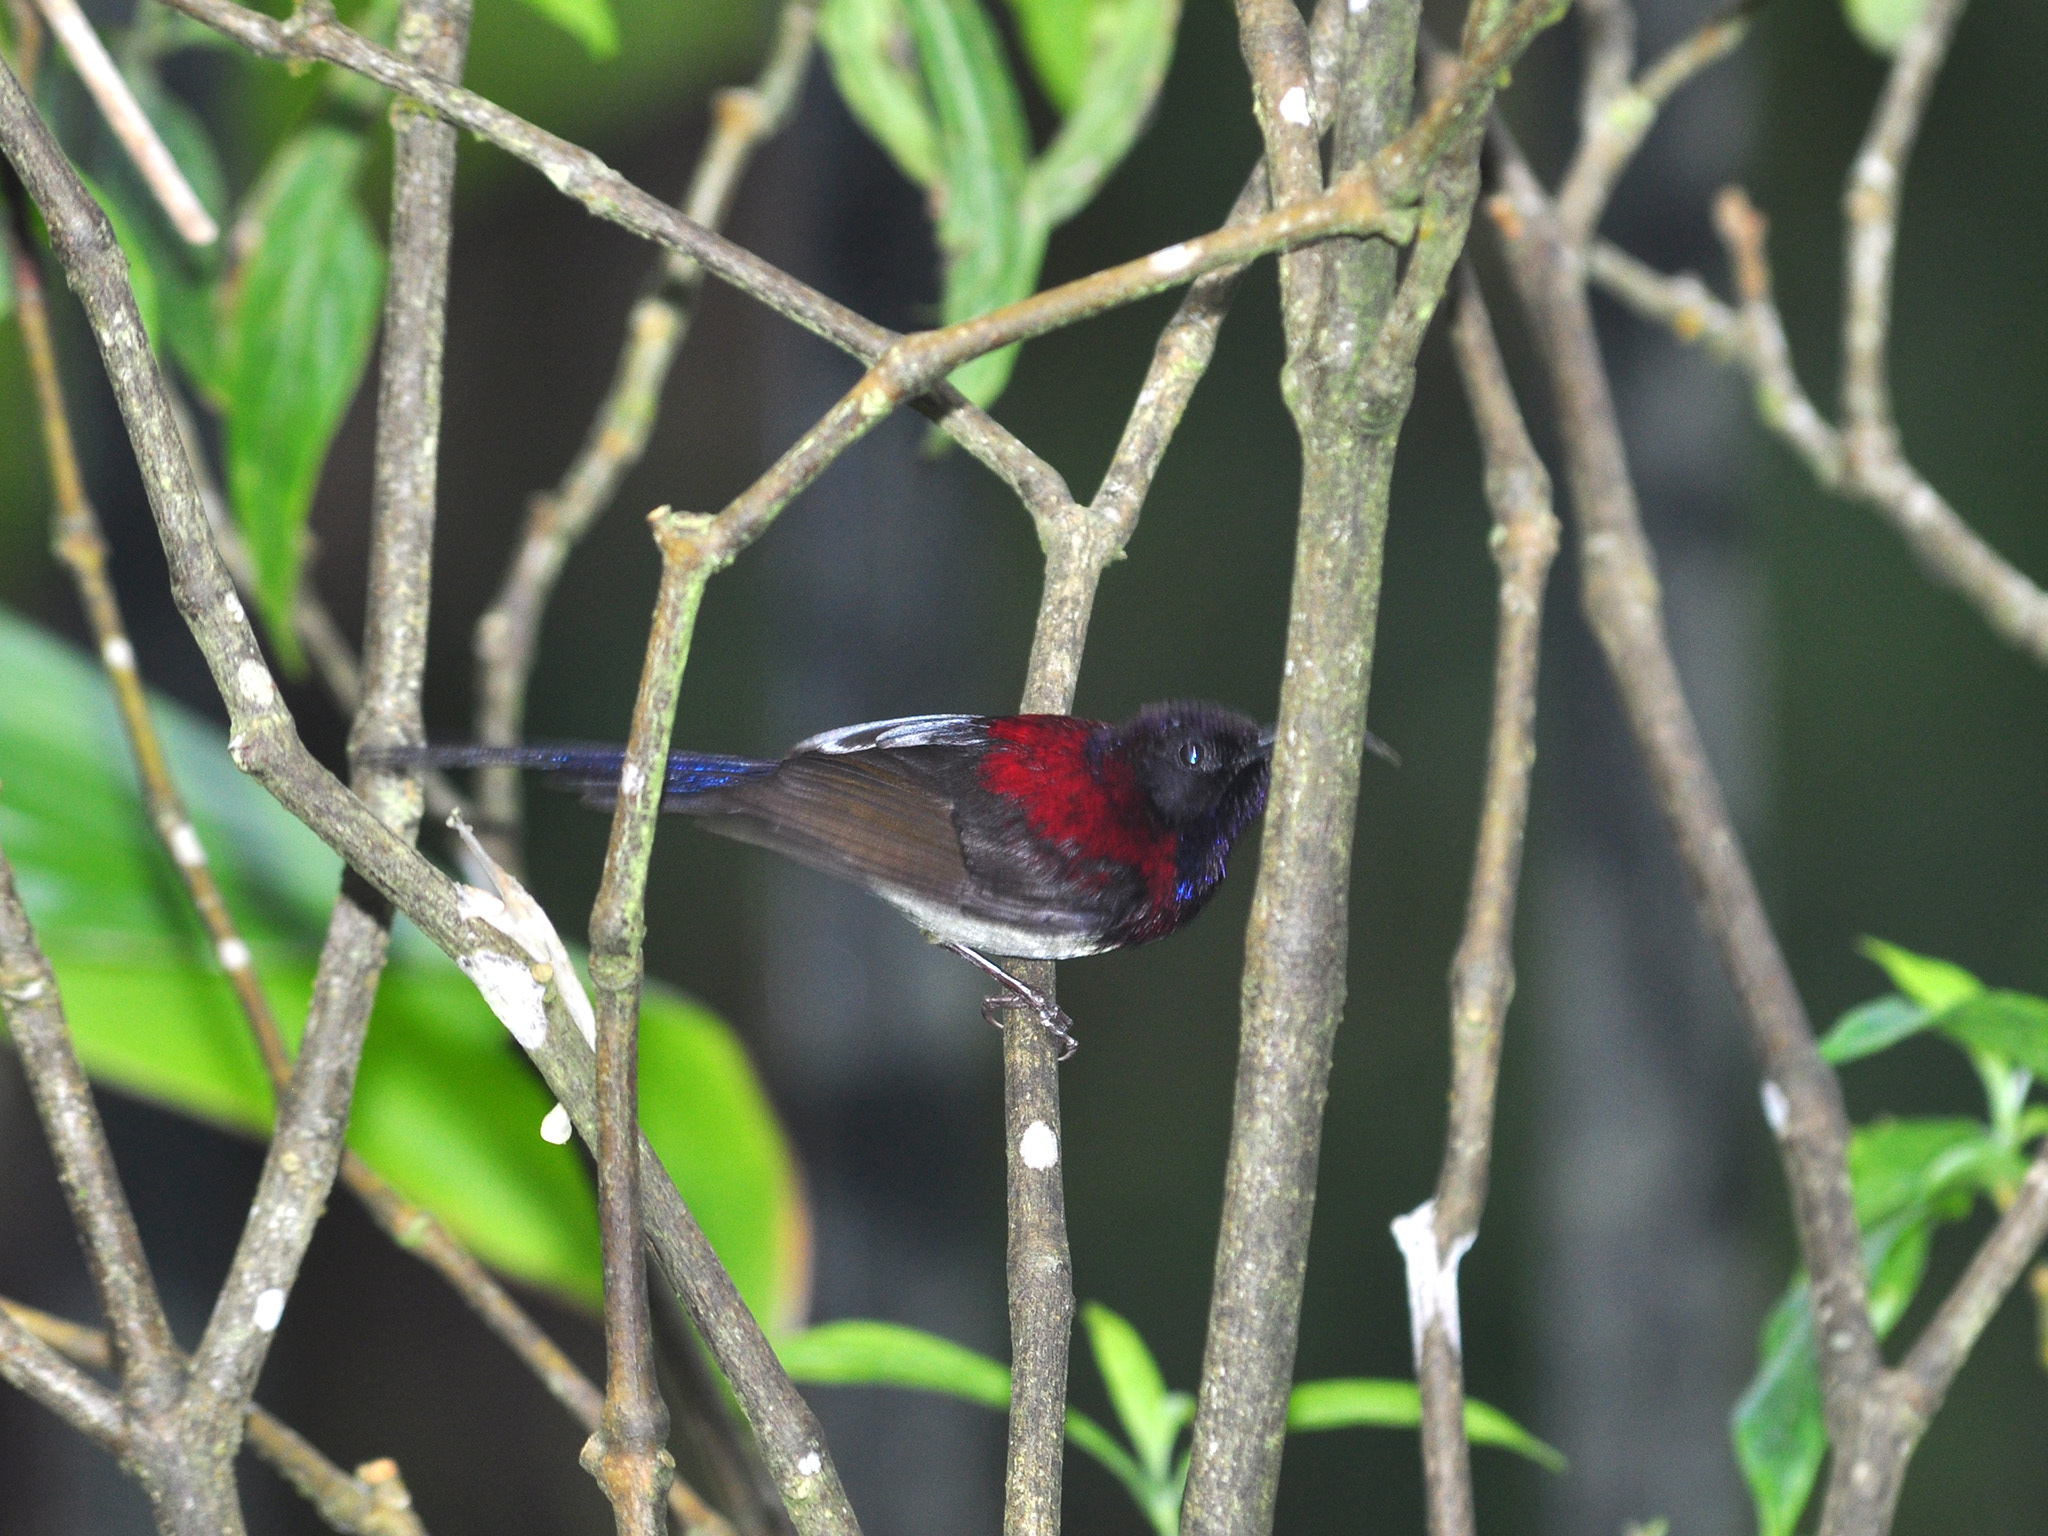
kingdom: Animalia
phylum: Chordata
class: Aves
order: Passeriformes
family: Nectariniidae
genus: Aethopyga
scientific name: Aethopyga saturata
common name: Black-throated sunbird
